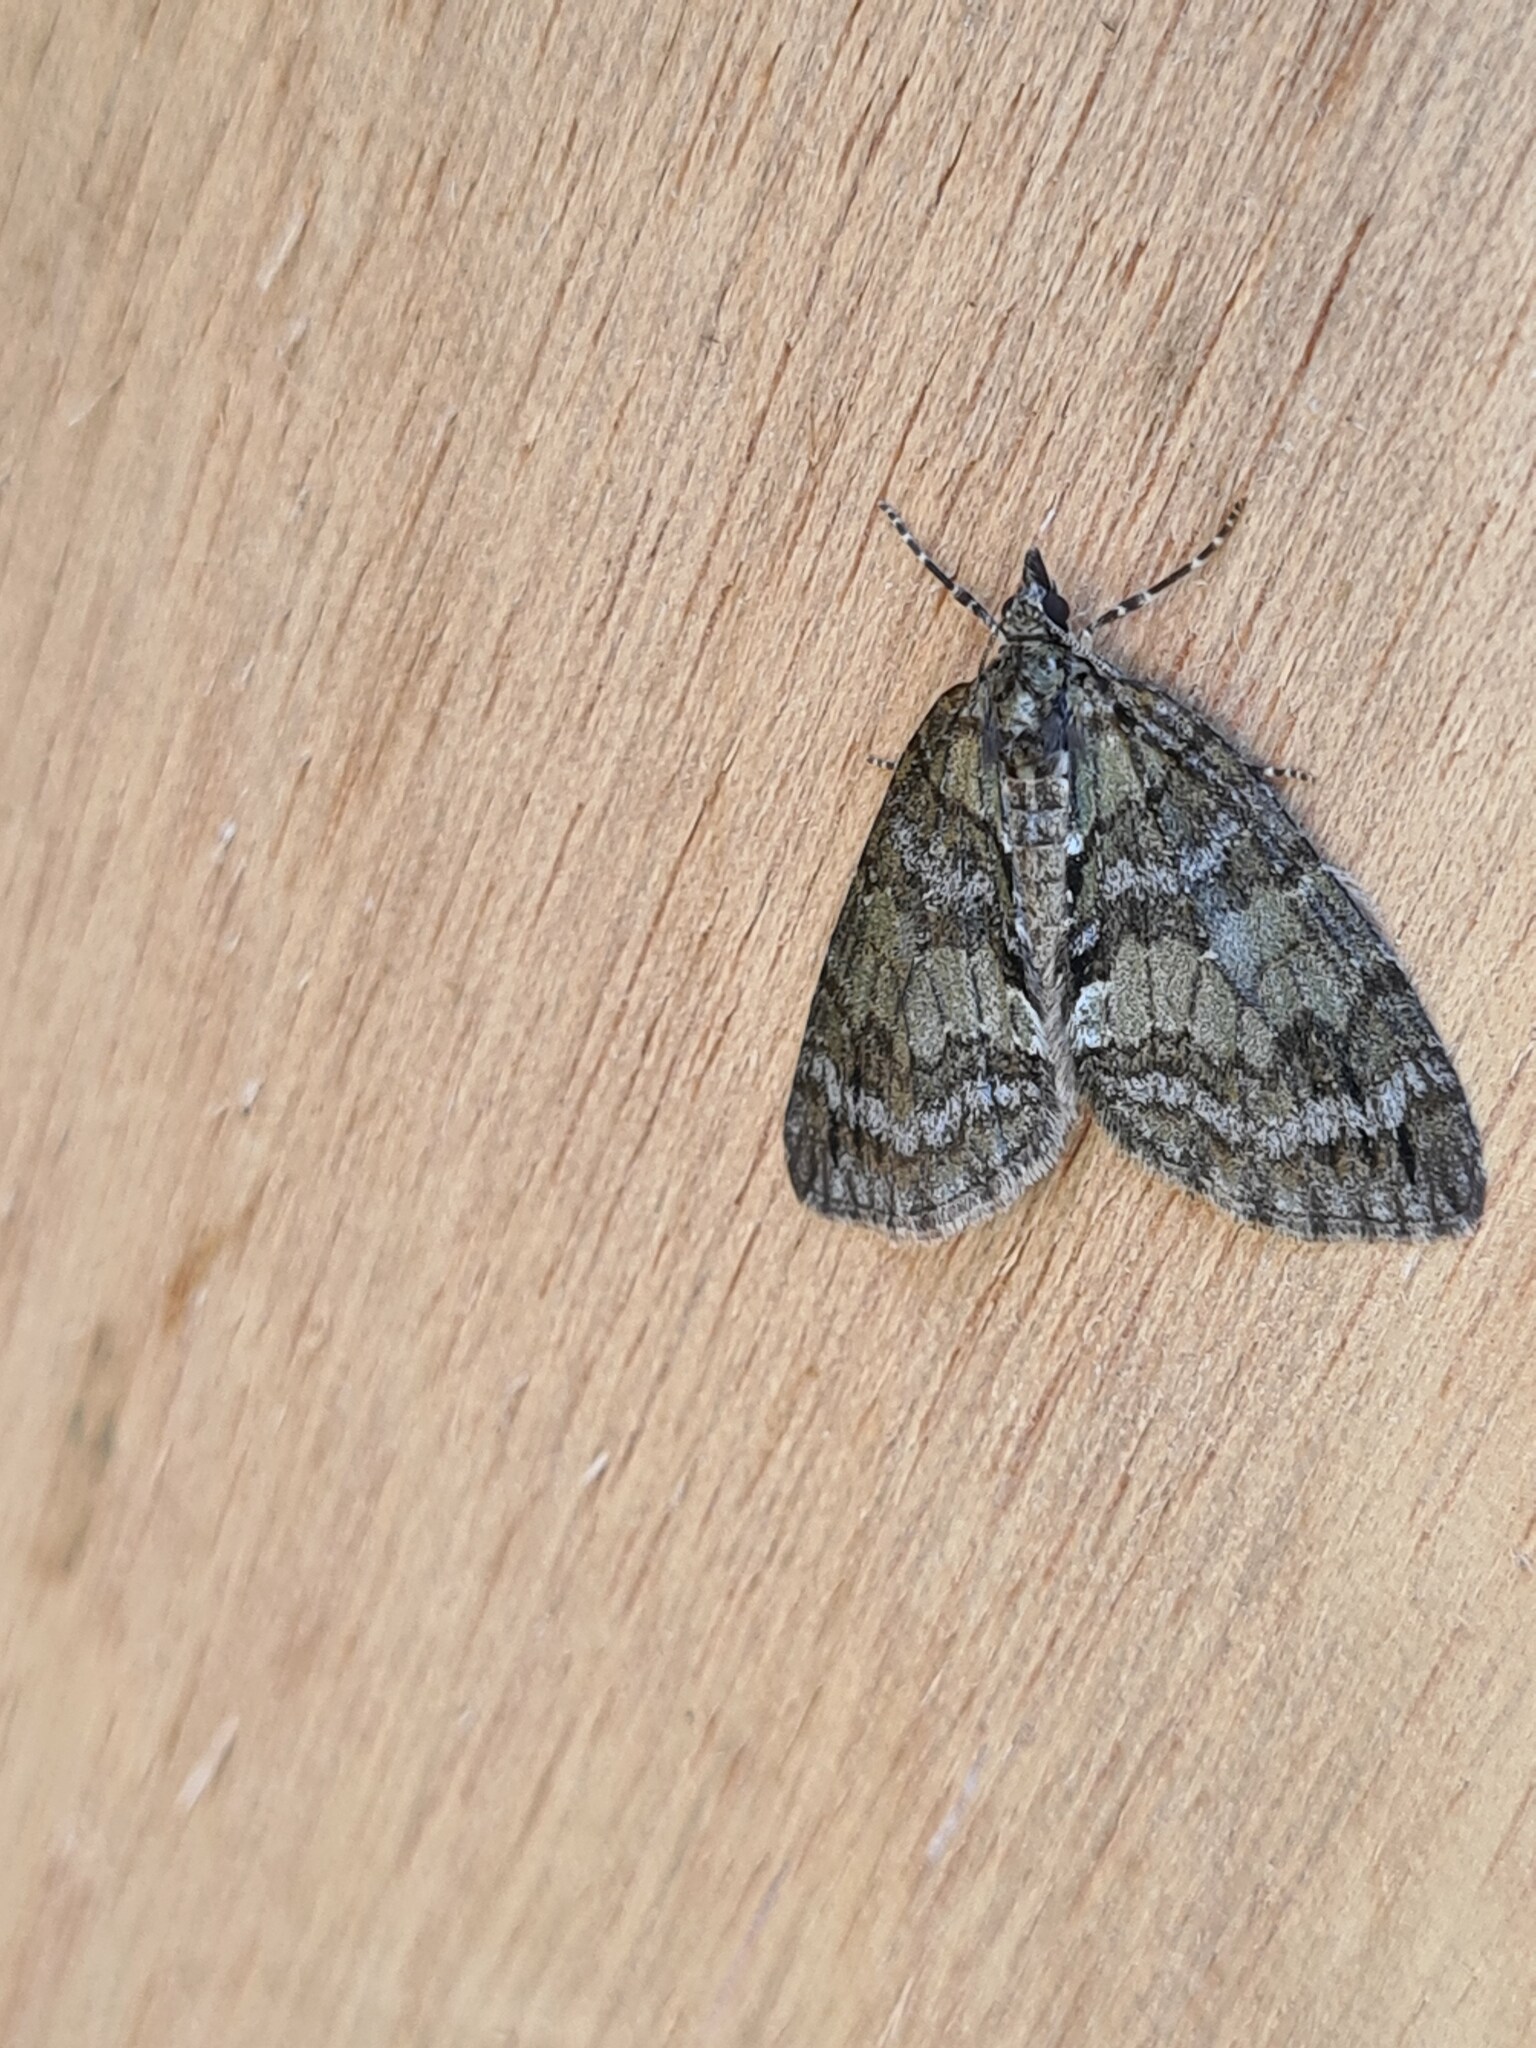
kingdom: Animalia
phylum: Arthropoda
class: Insecta
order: Lepidoptera
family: Geometridae
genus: Hydriomena
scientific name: Hydriomena impluviata
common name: May highflyer
